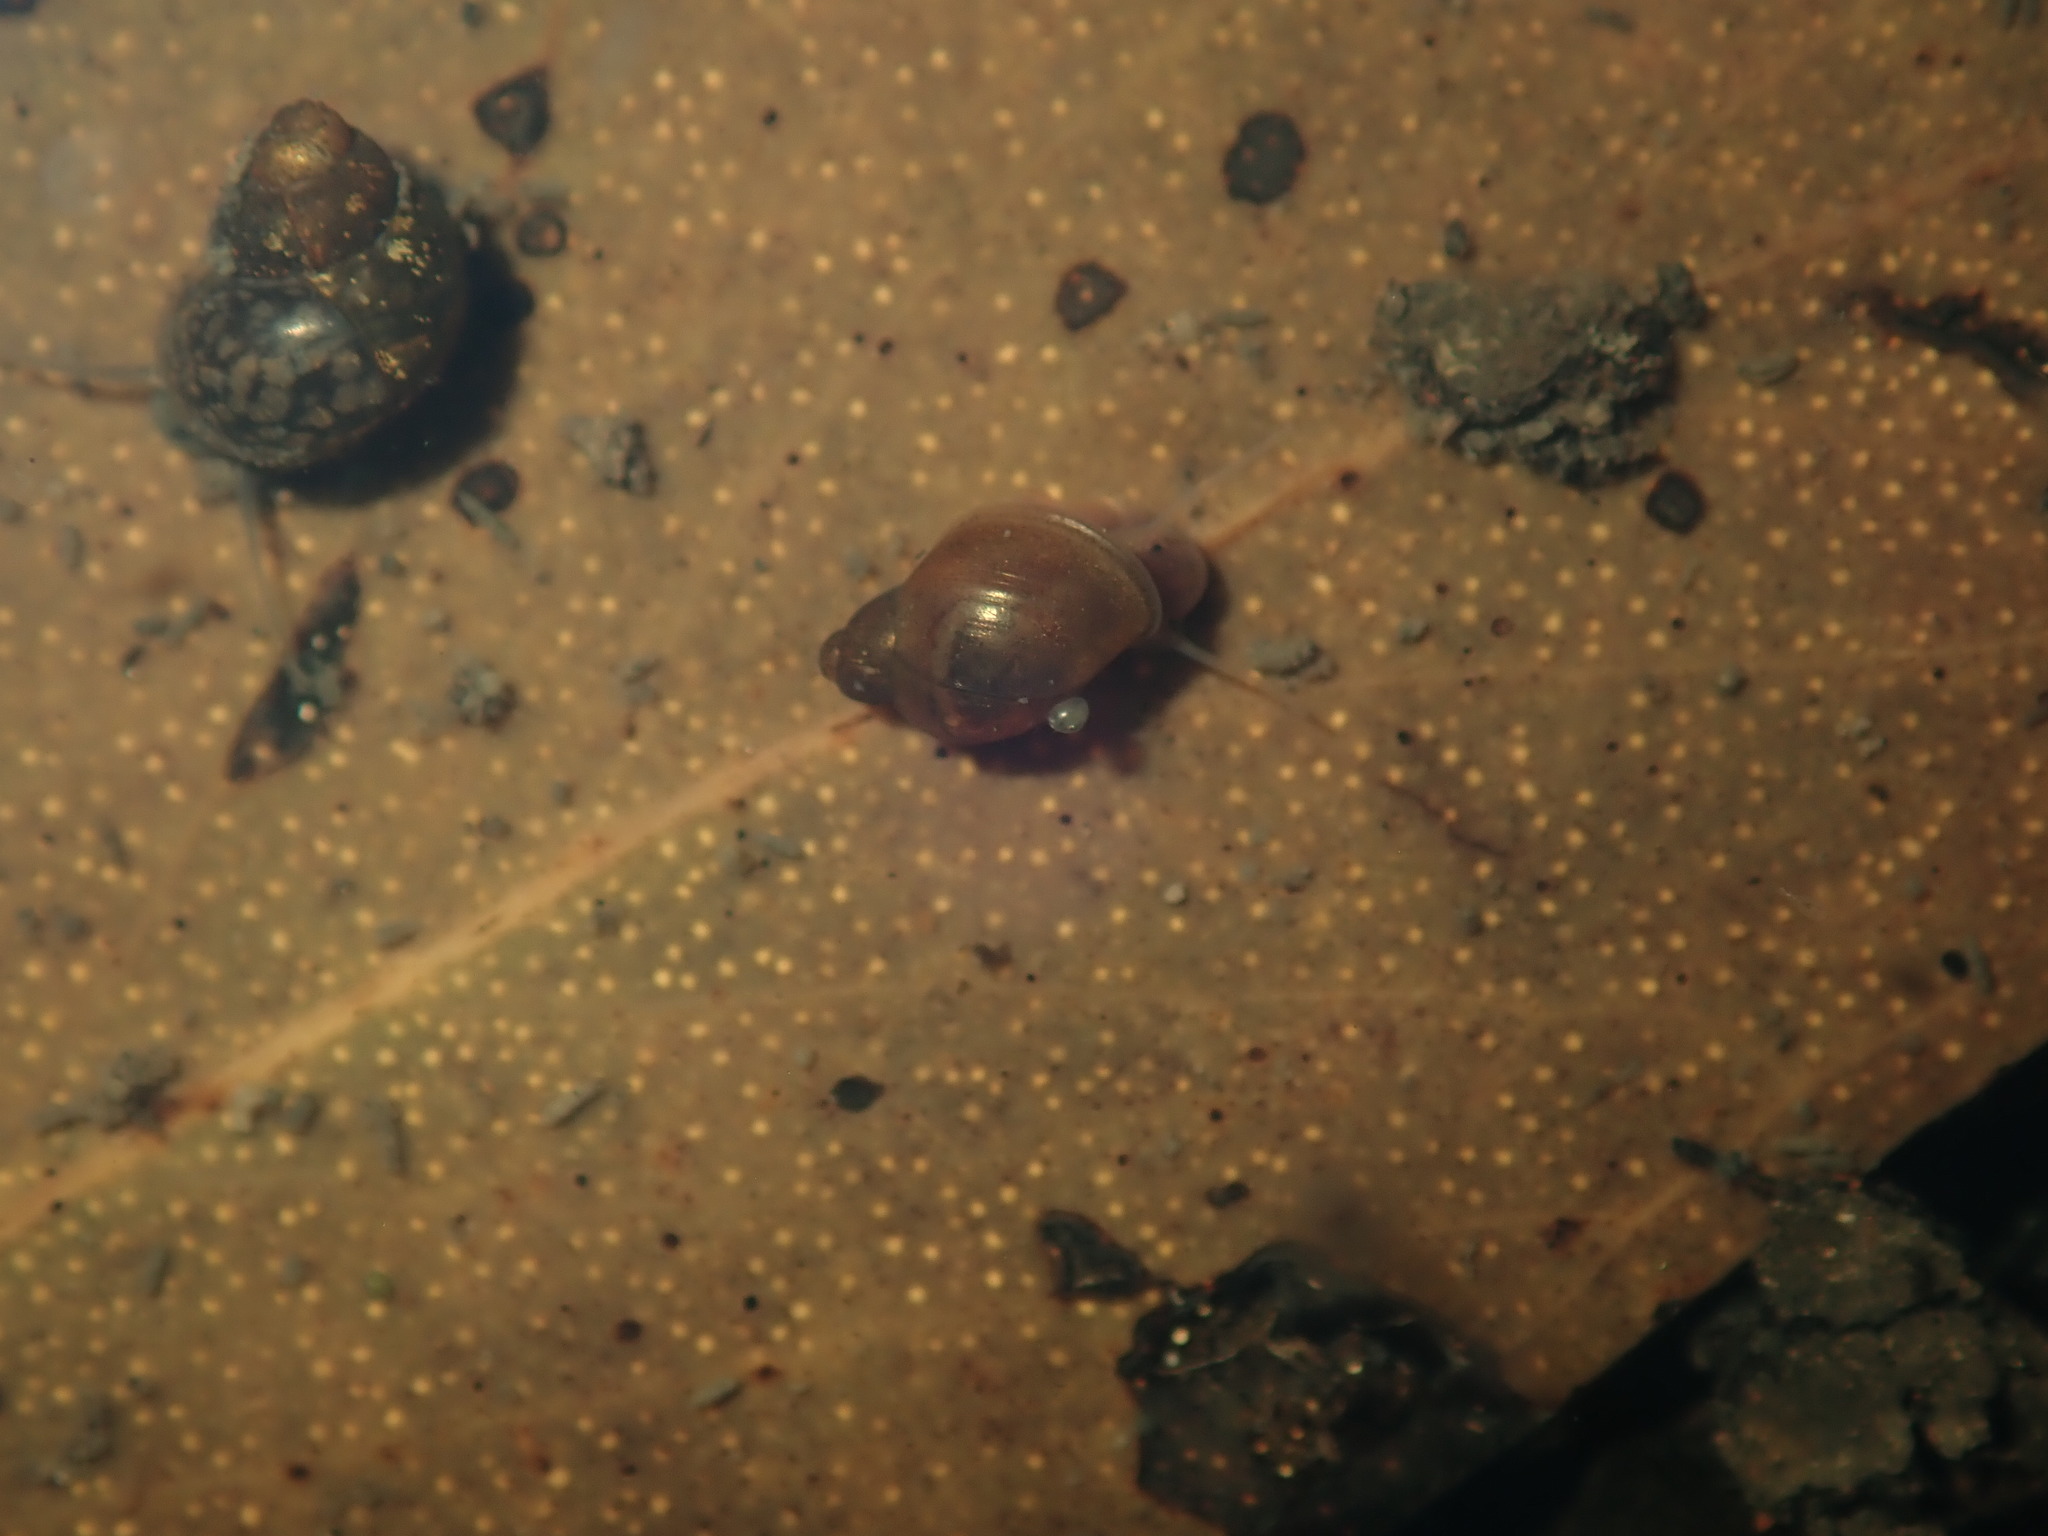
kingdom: Animalia
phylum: Mollusca
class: Gastropoda
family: Planorbidae
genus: Isidorella
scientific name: Isidorella hainesii
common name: Haine’s pouch snail
